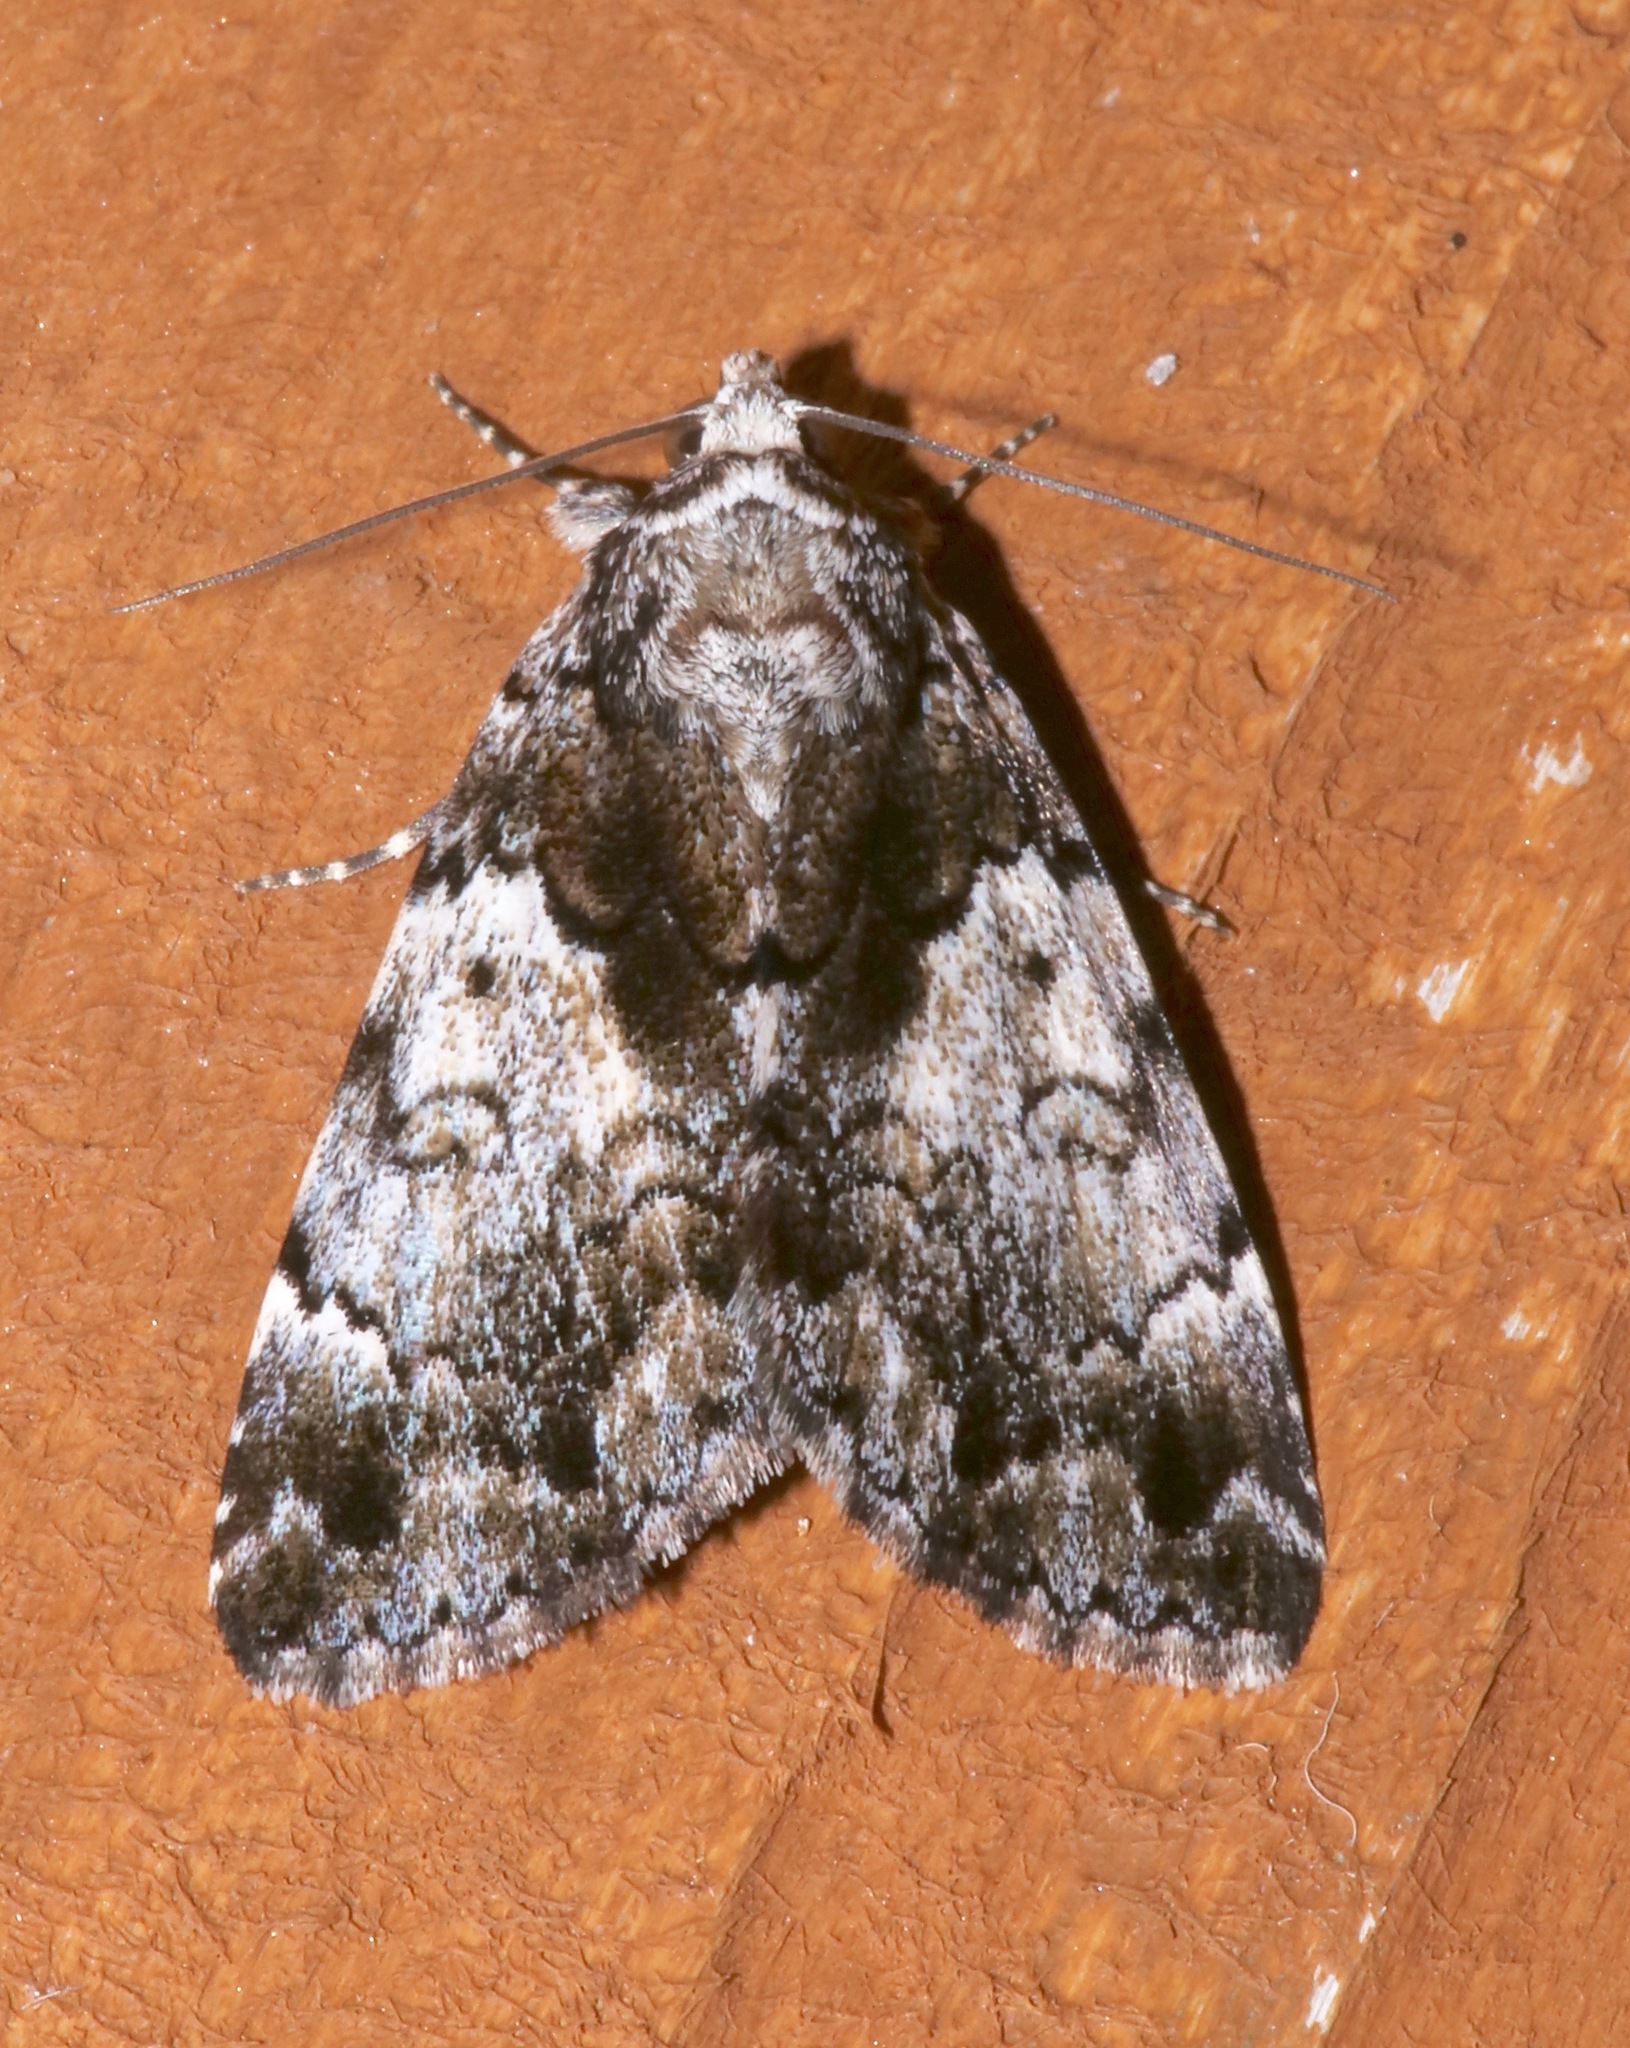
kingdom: Animalia
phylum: Arthropoda
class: Insecta
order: Lepidoptera
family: Erebidae
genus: Allotria
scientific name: Allotria elonympha
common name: False underwing
